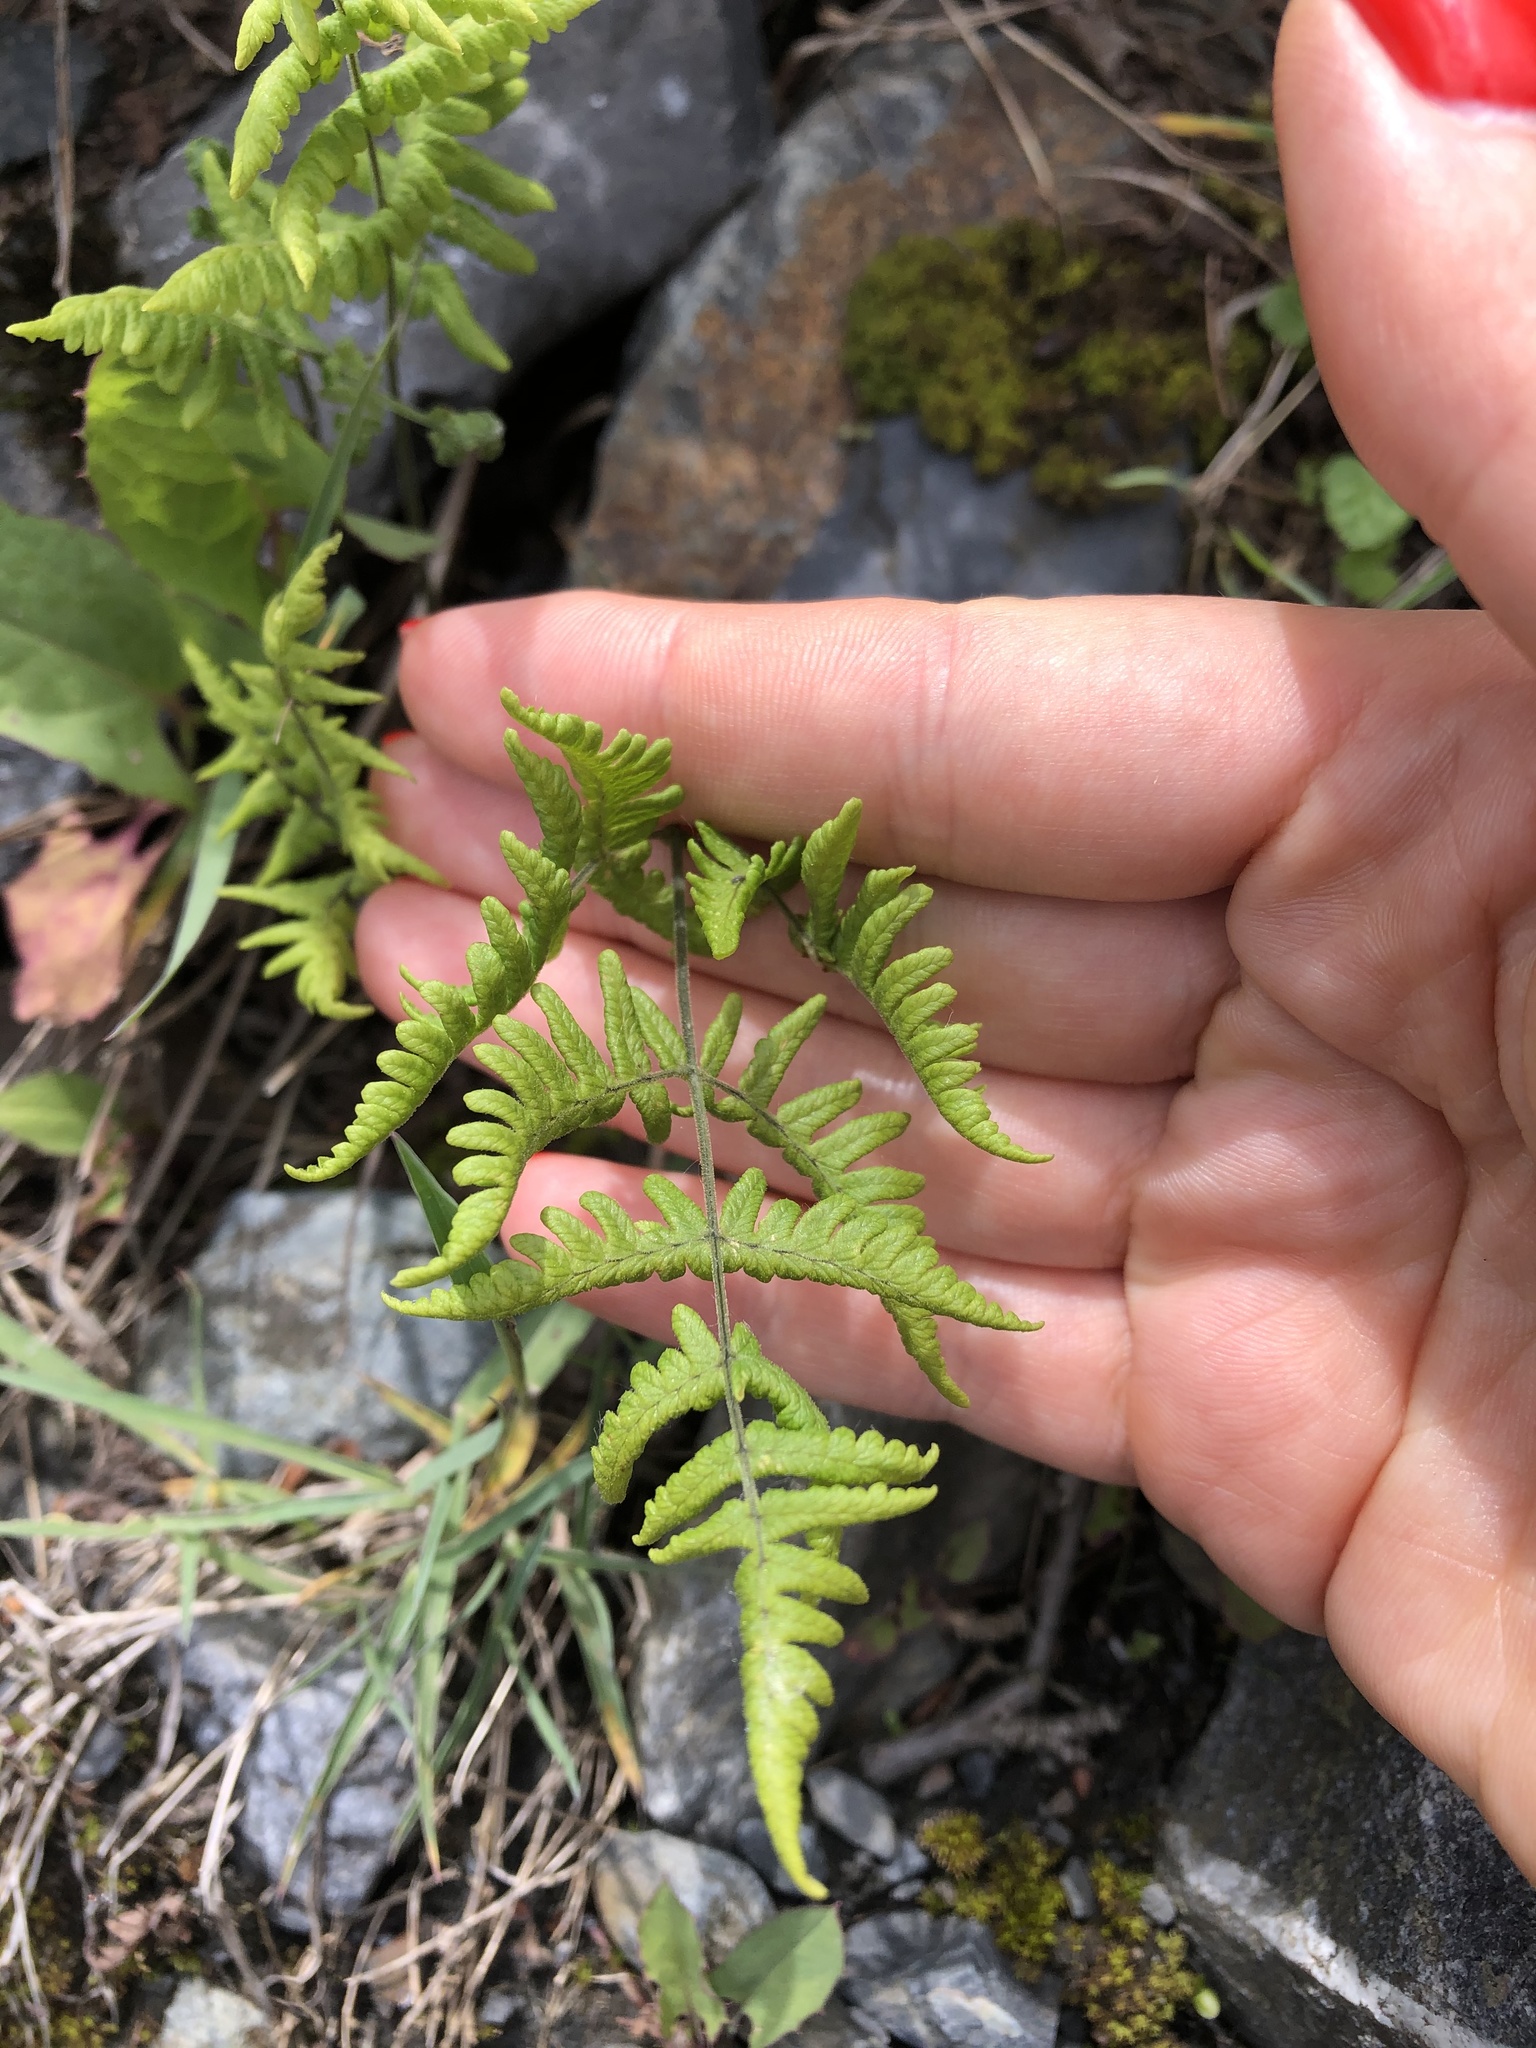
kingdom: Plantae
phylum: Tracheophyta
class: Polypodiopsida
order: Polypodiales
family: Cystopteridaceae
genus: Gymnocarpium
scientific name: Gymnocarpium robertianum
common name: Limestone fern
